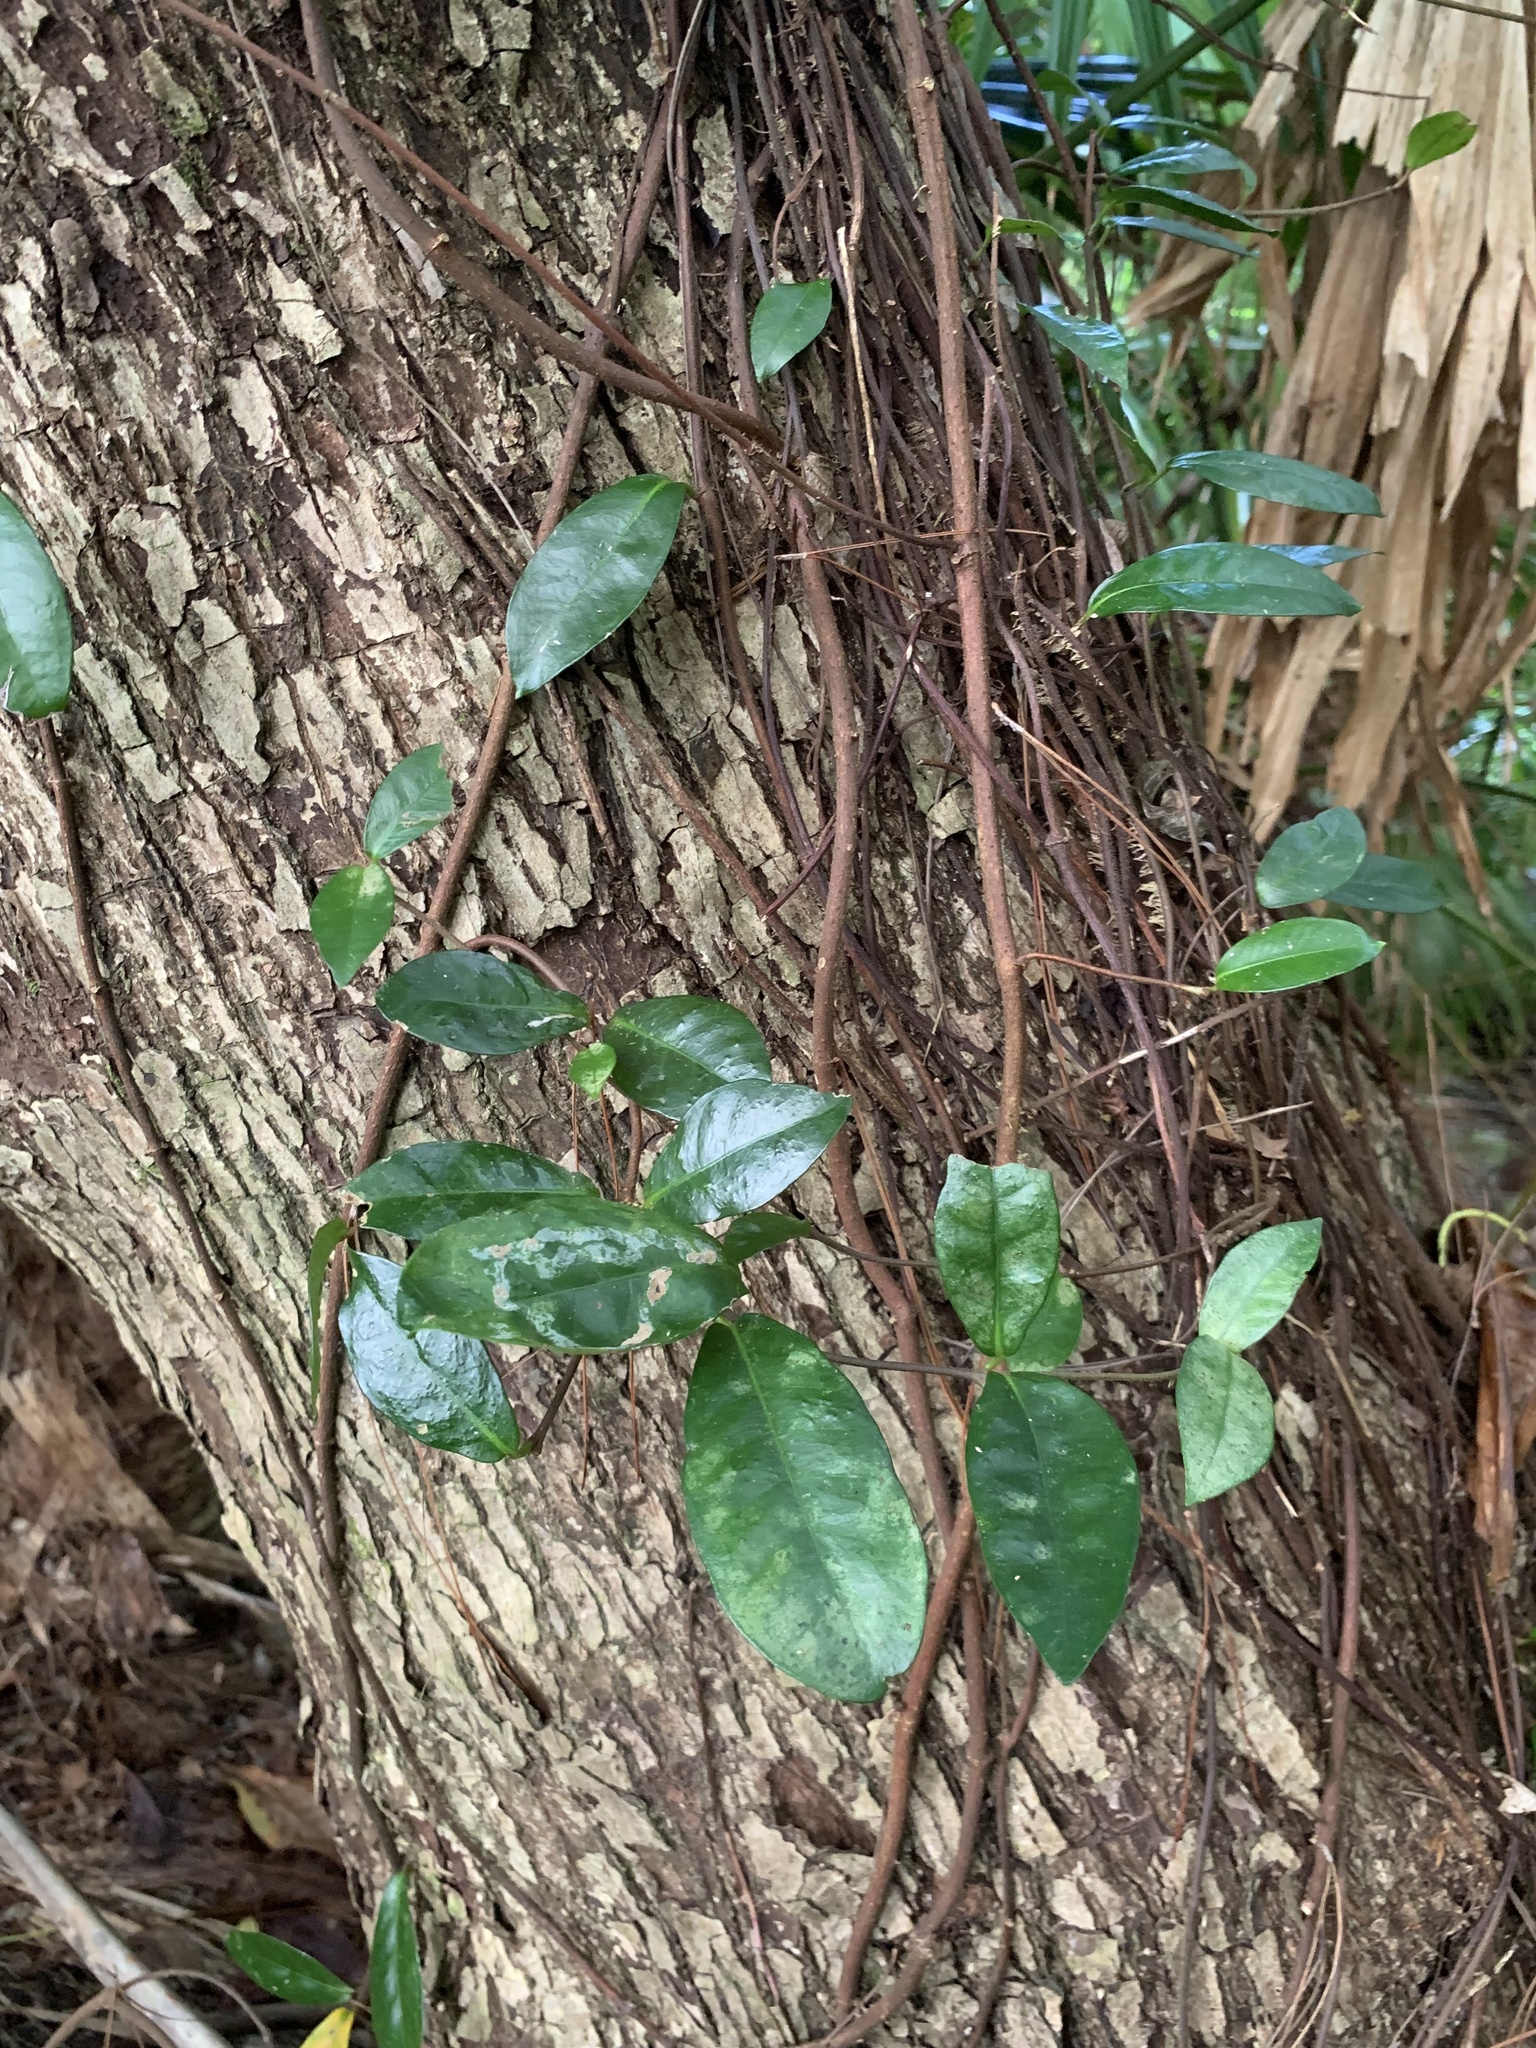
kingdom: Plantae
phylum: Tracheophyta
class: Magnoliopsida
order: Gentianales
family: Apocynaceae
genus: Trachelospermum
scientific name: Trachelospermum asiaticum
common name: Asiatic jasmine
